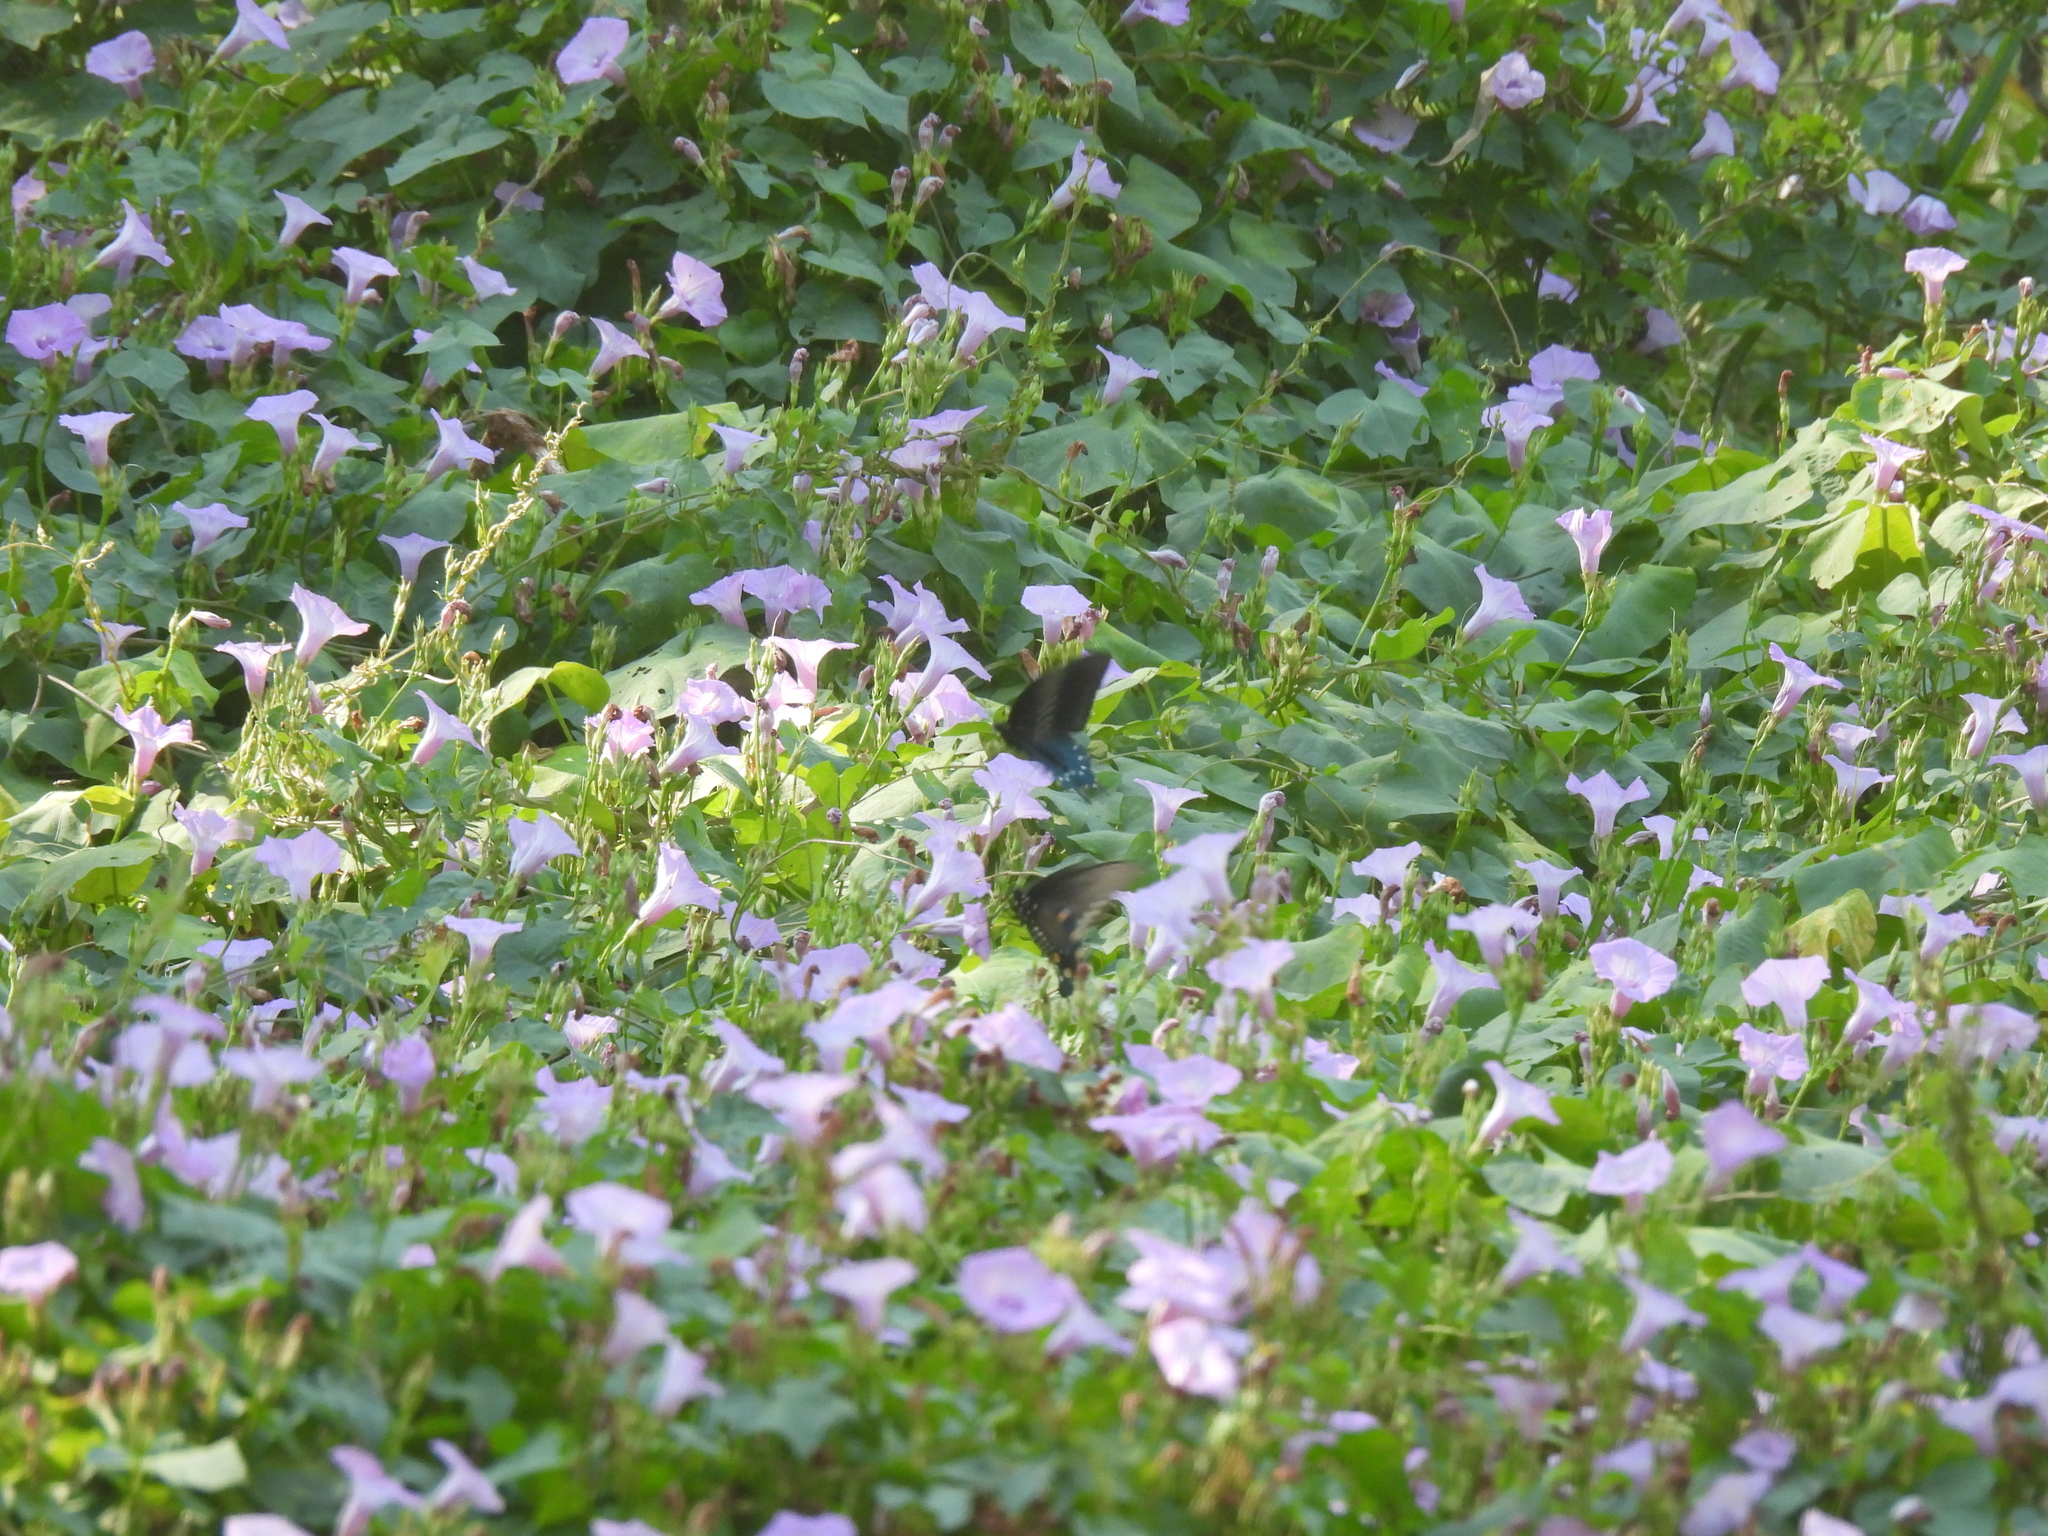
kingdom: Animalia
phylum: Arthropoda
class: Insecta
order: Lepidoptera
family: Papilionidae
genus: Battus
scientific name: Battus philenor
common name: Pipevine swallowtail
